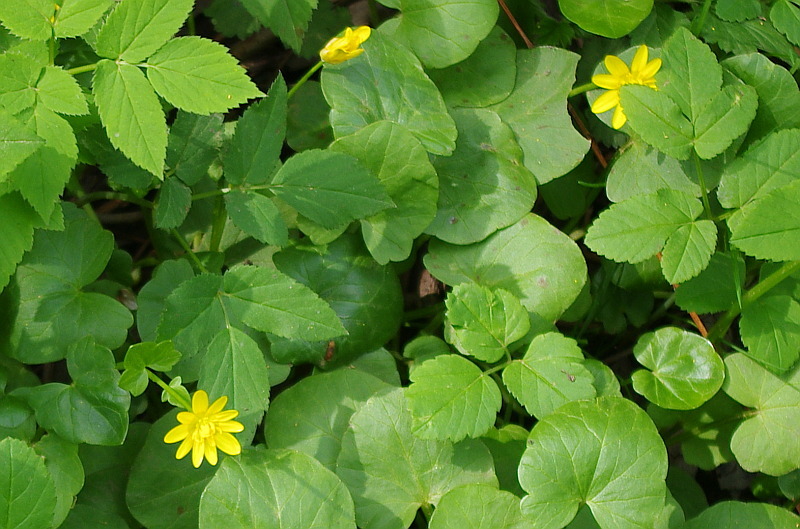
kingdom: Plantae
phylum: Tracheophyta
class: Magnoliopsida
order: Ranunculales
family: Ranunculaceae
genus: Ficaria
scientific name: Ficaria verna
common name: Lesser celandine
